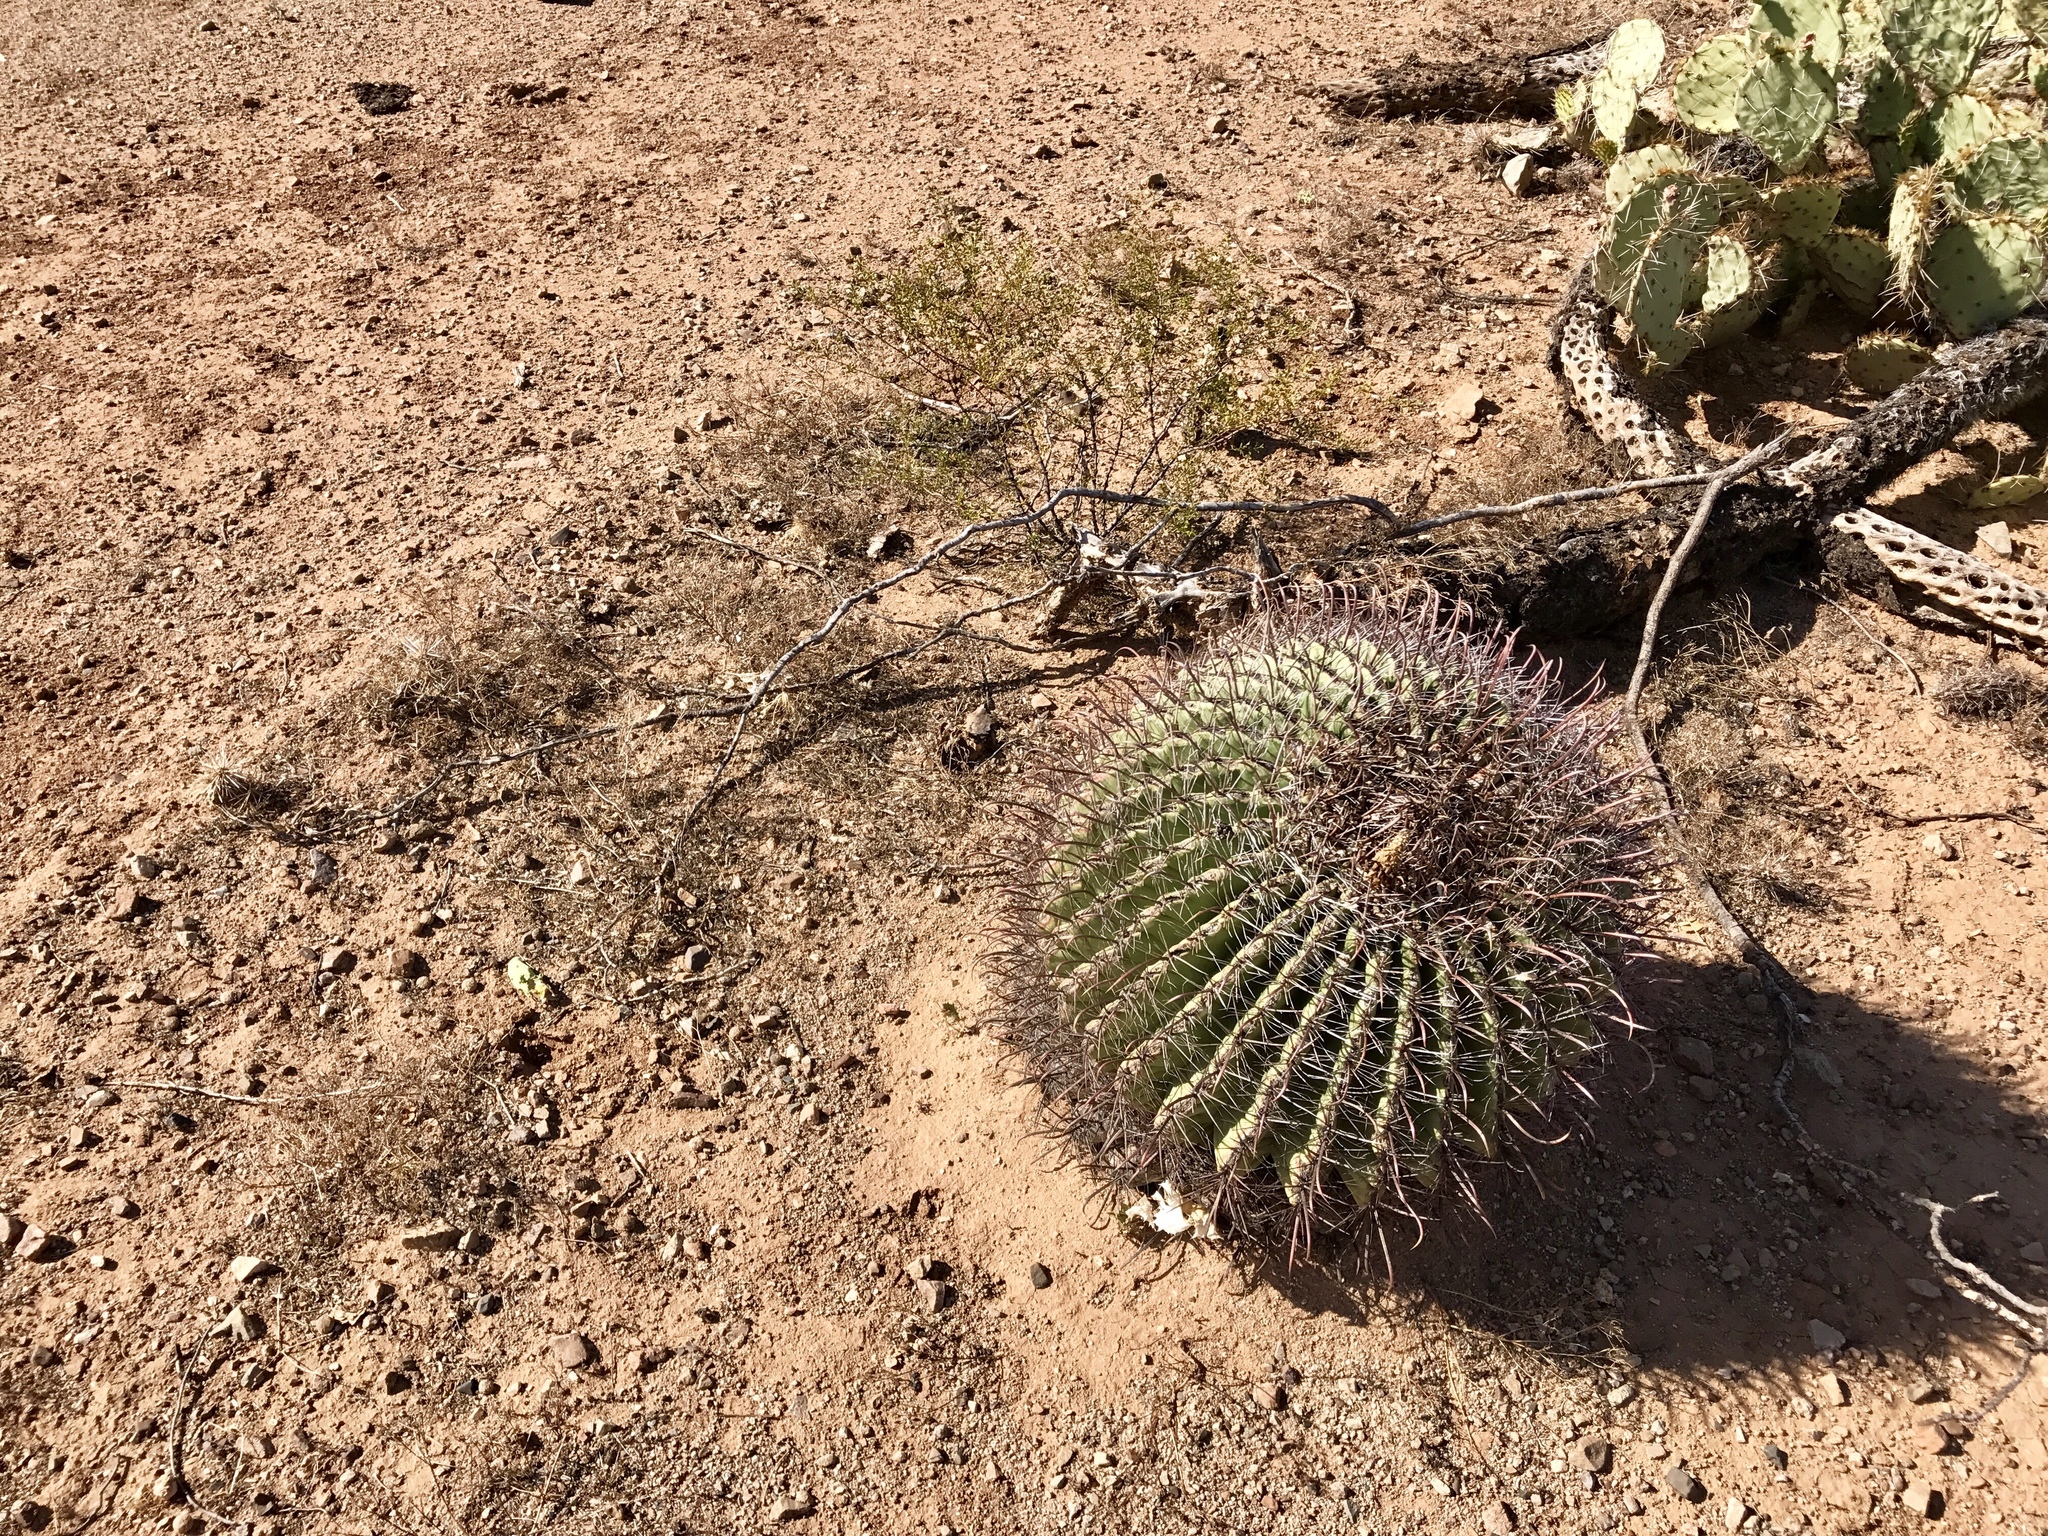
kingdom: Plantae
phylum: Tracheophyta
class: Magnoliopsida
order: Caryophyllales
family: Cactaceae
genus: Ferocactus
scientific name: Ferocactus wislizeni
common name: Candy barrel cactus
